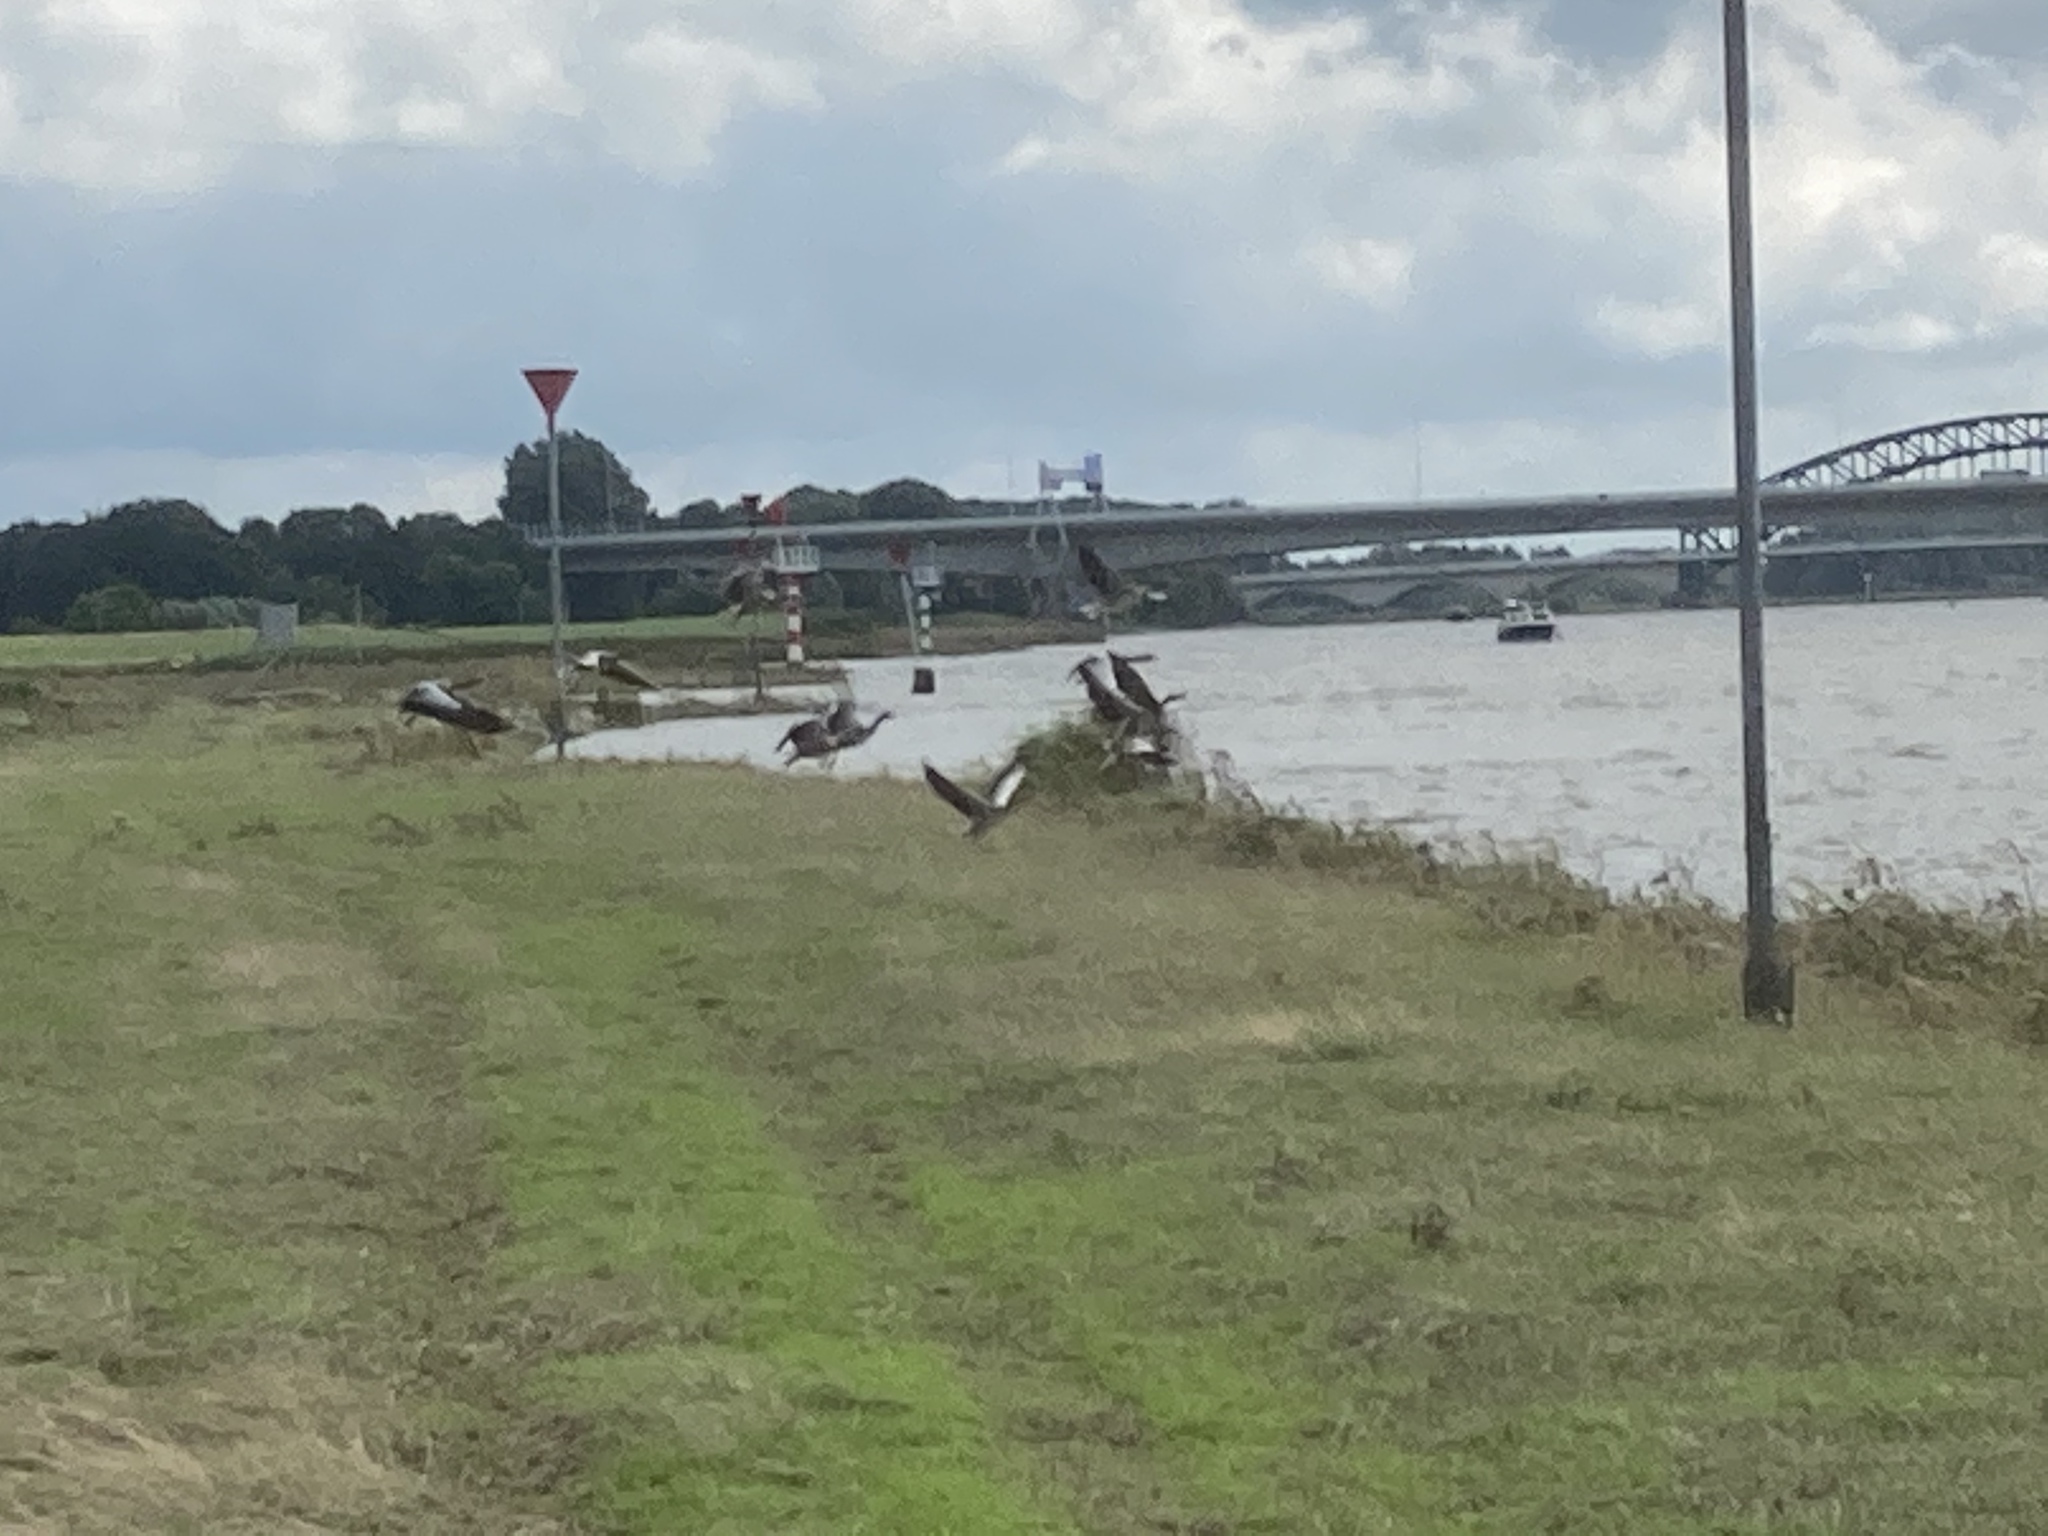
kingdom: Animalia
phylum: Chordata
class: Aves
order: Anseriformes
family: Anatidae
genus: Anser
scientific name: Anser anser
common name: Greylag goose
